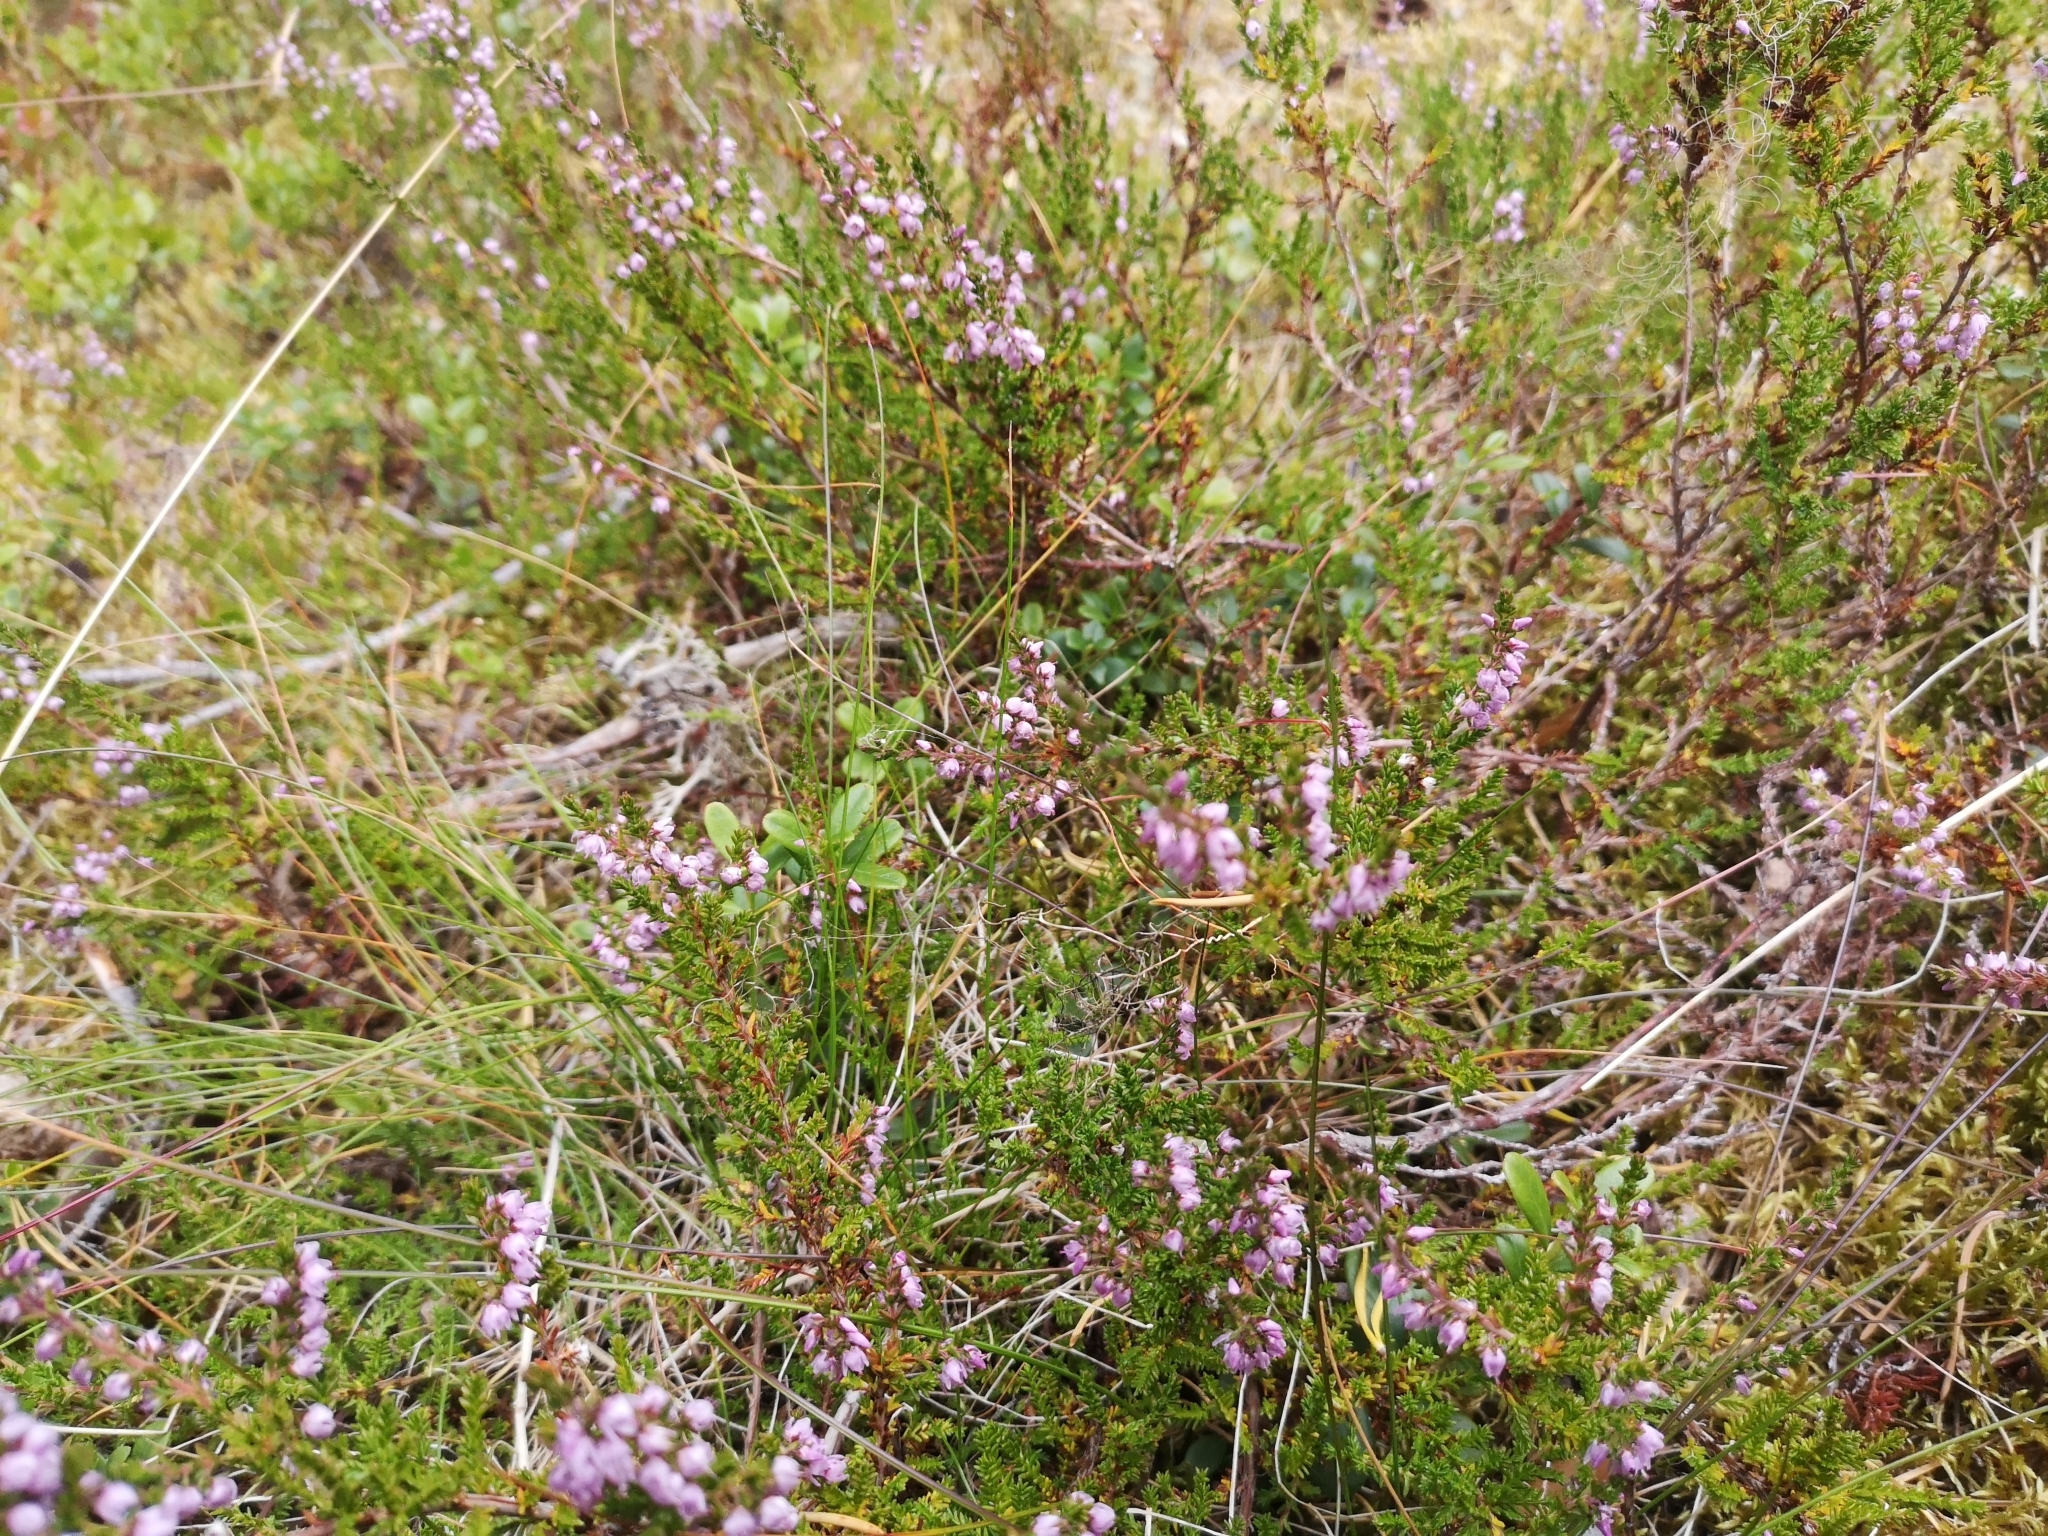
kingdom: Plantae
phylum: Tracheophyta
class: Magnoliopsida
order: Ericales
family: Ericaceae
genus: Calluna
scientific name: Calluna vulgaris
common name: Heather
